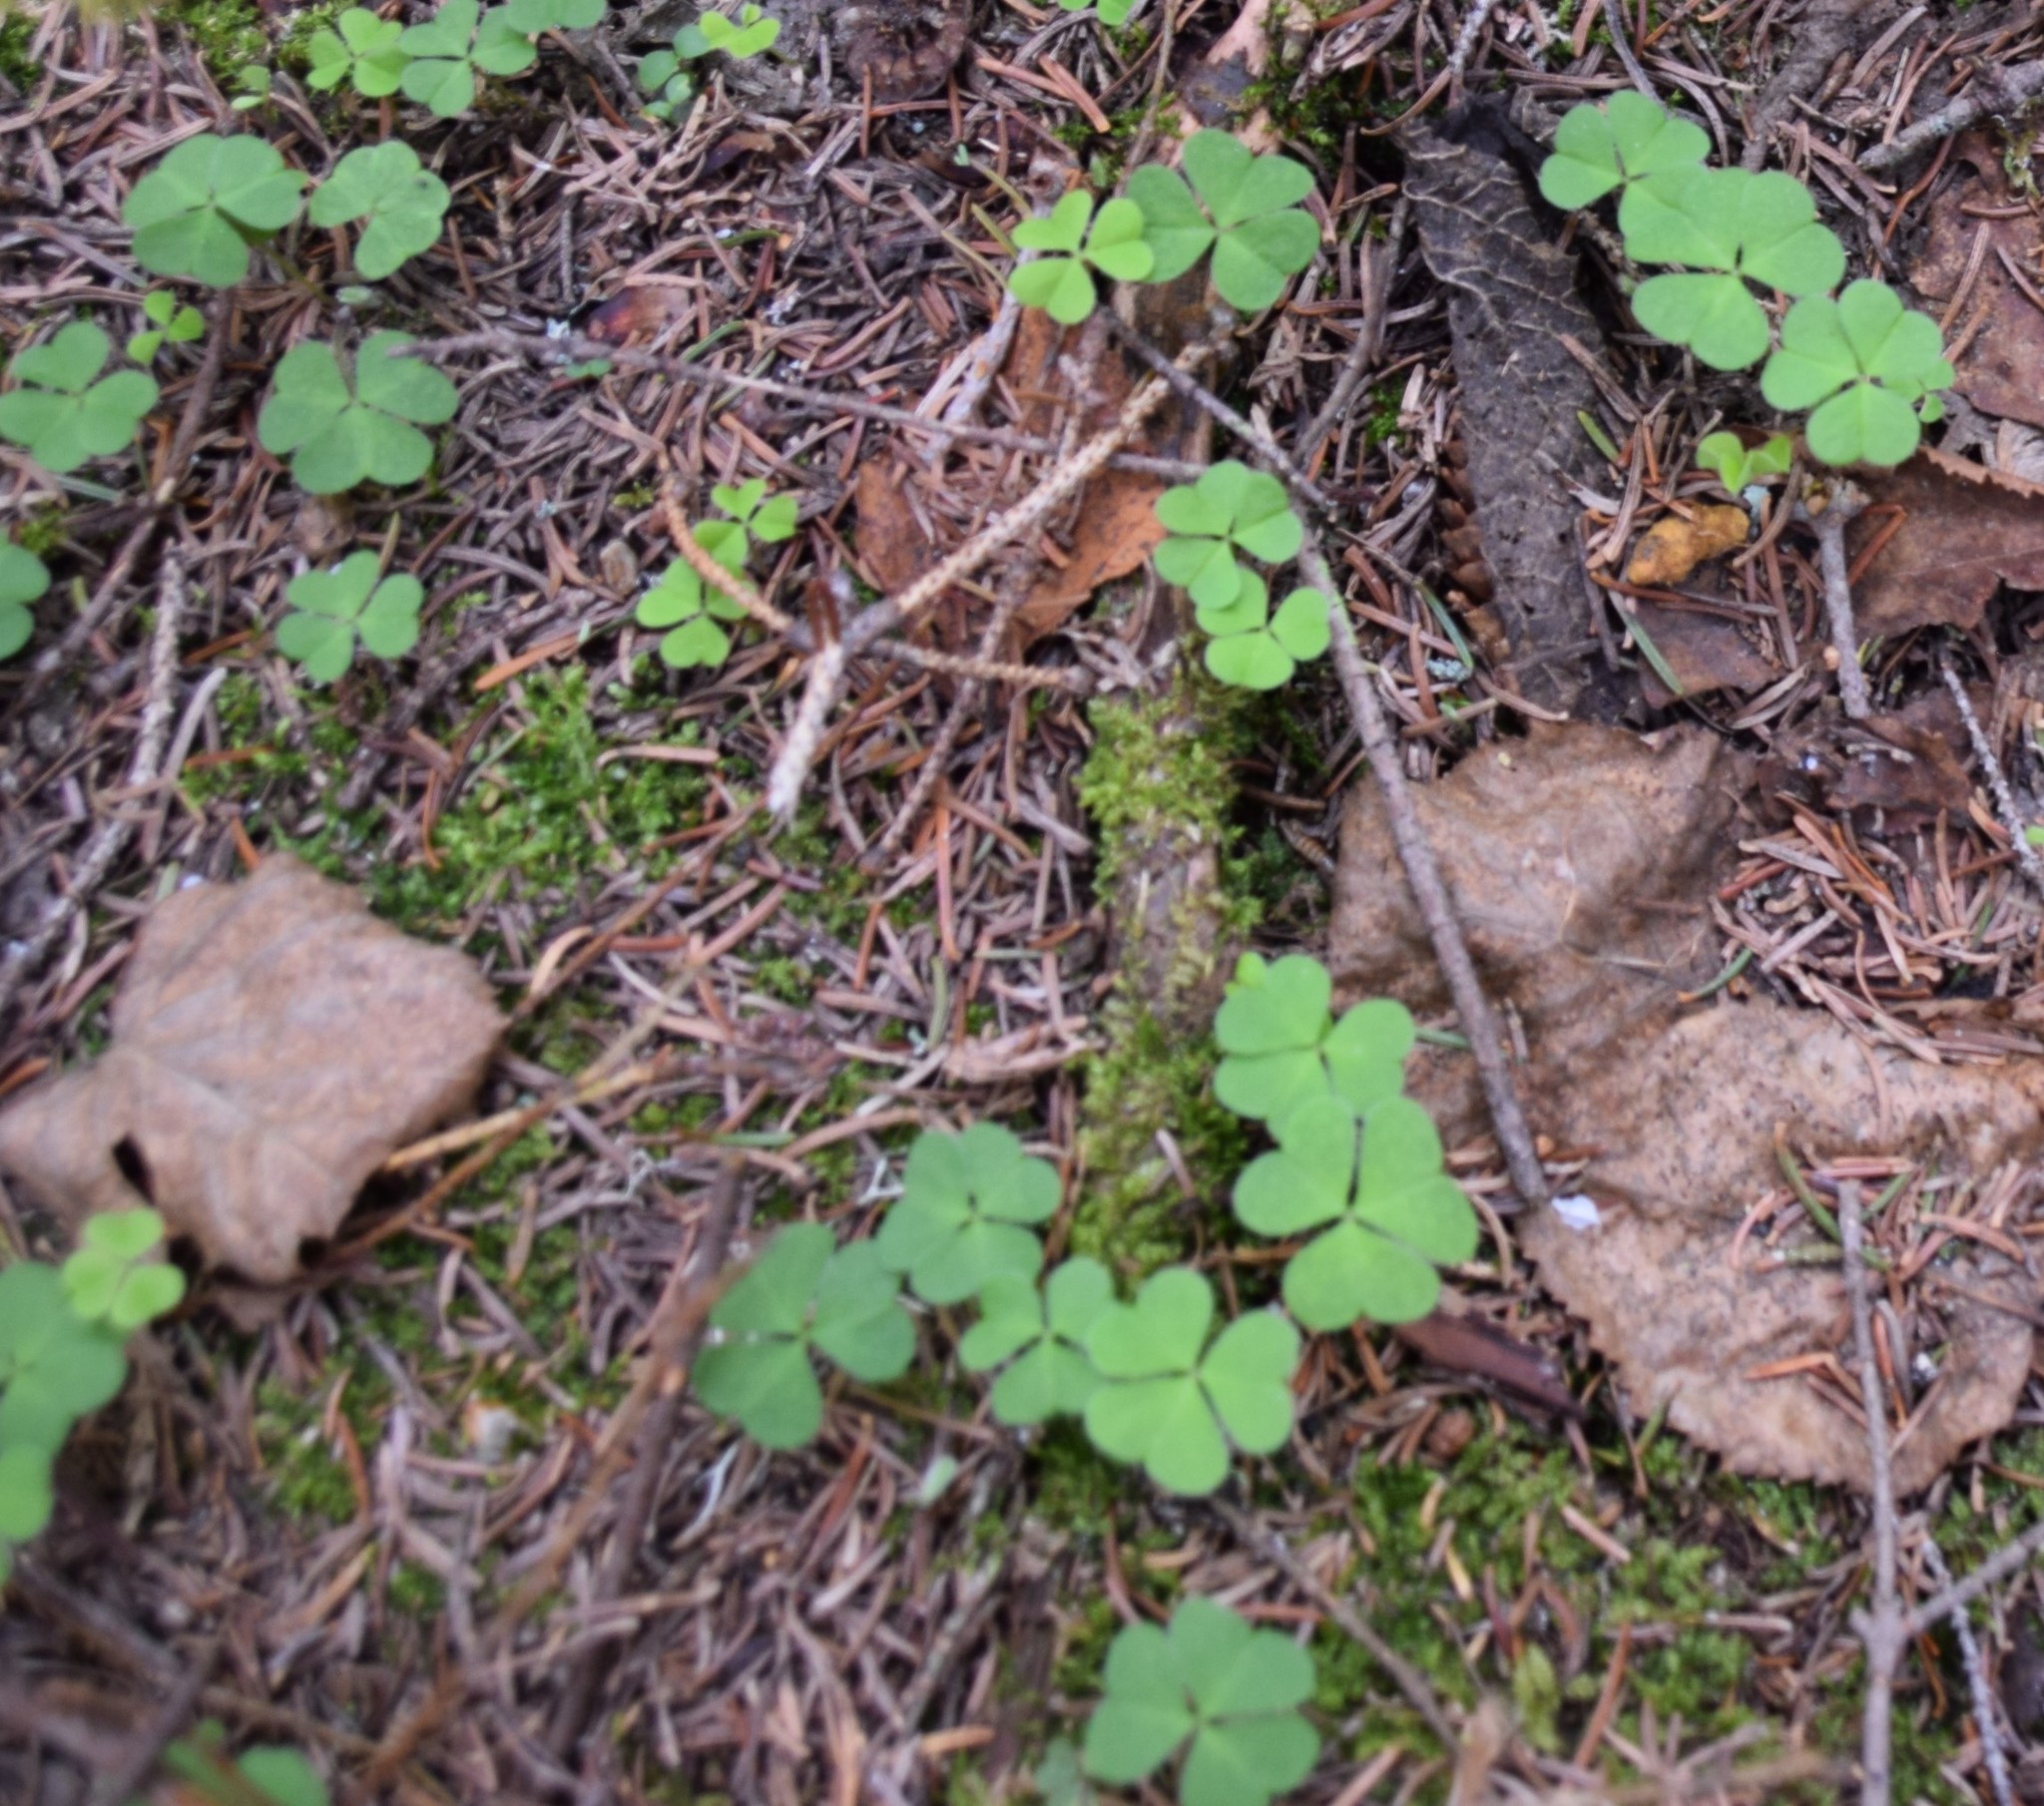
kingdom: Plantae
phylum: Tracheophyta
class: Magnoliopsida
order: Oxalidales
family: Oxalidaceae
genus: Oxalis
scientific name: Oxalis montana
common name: American wood-sorrel
